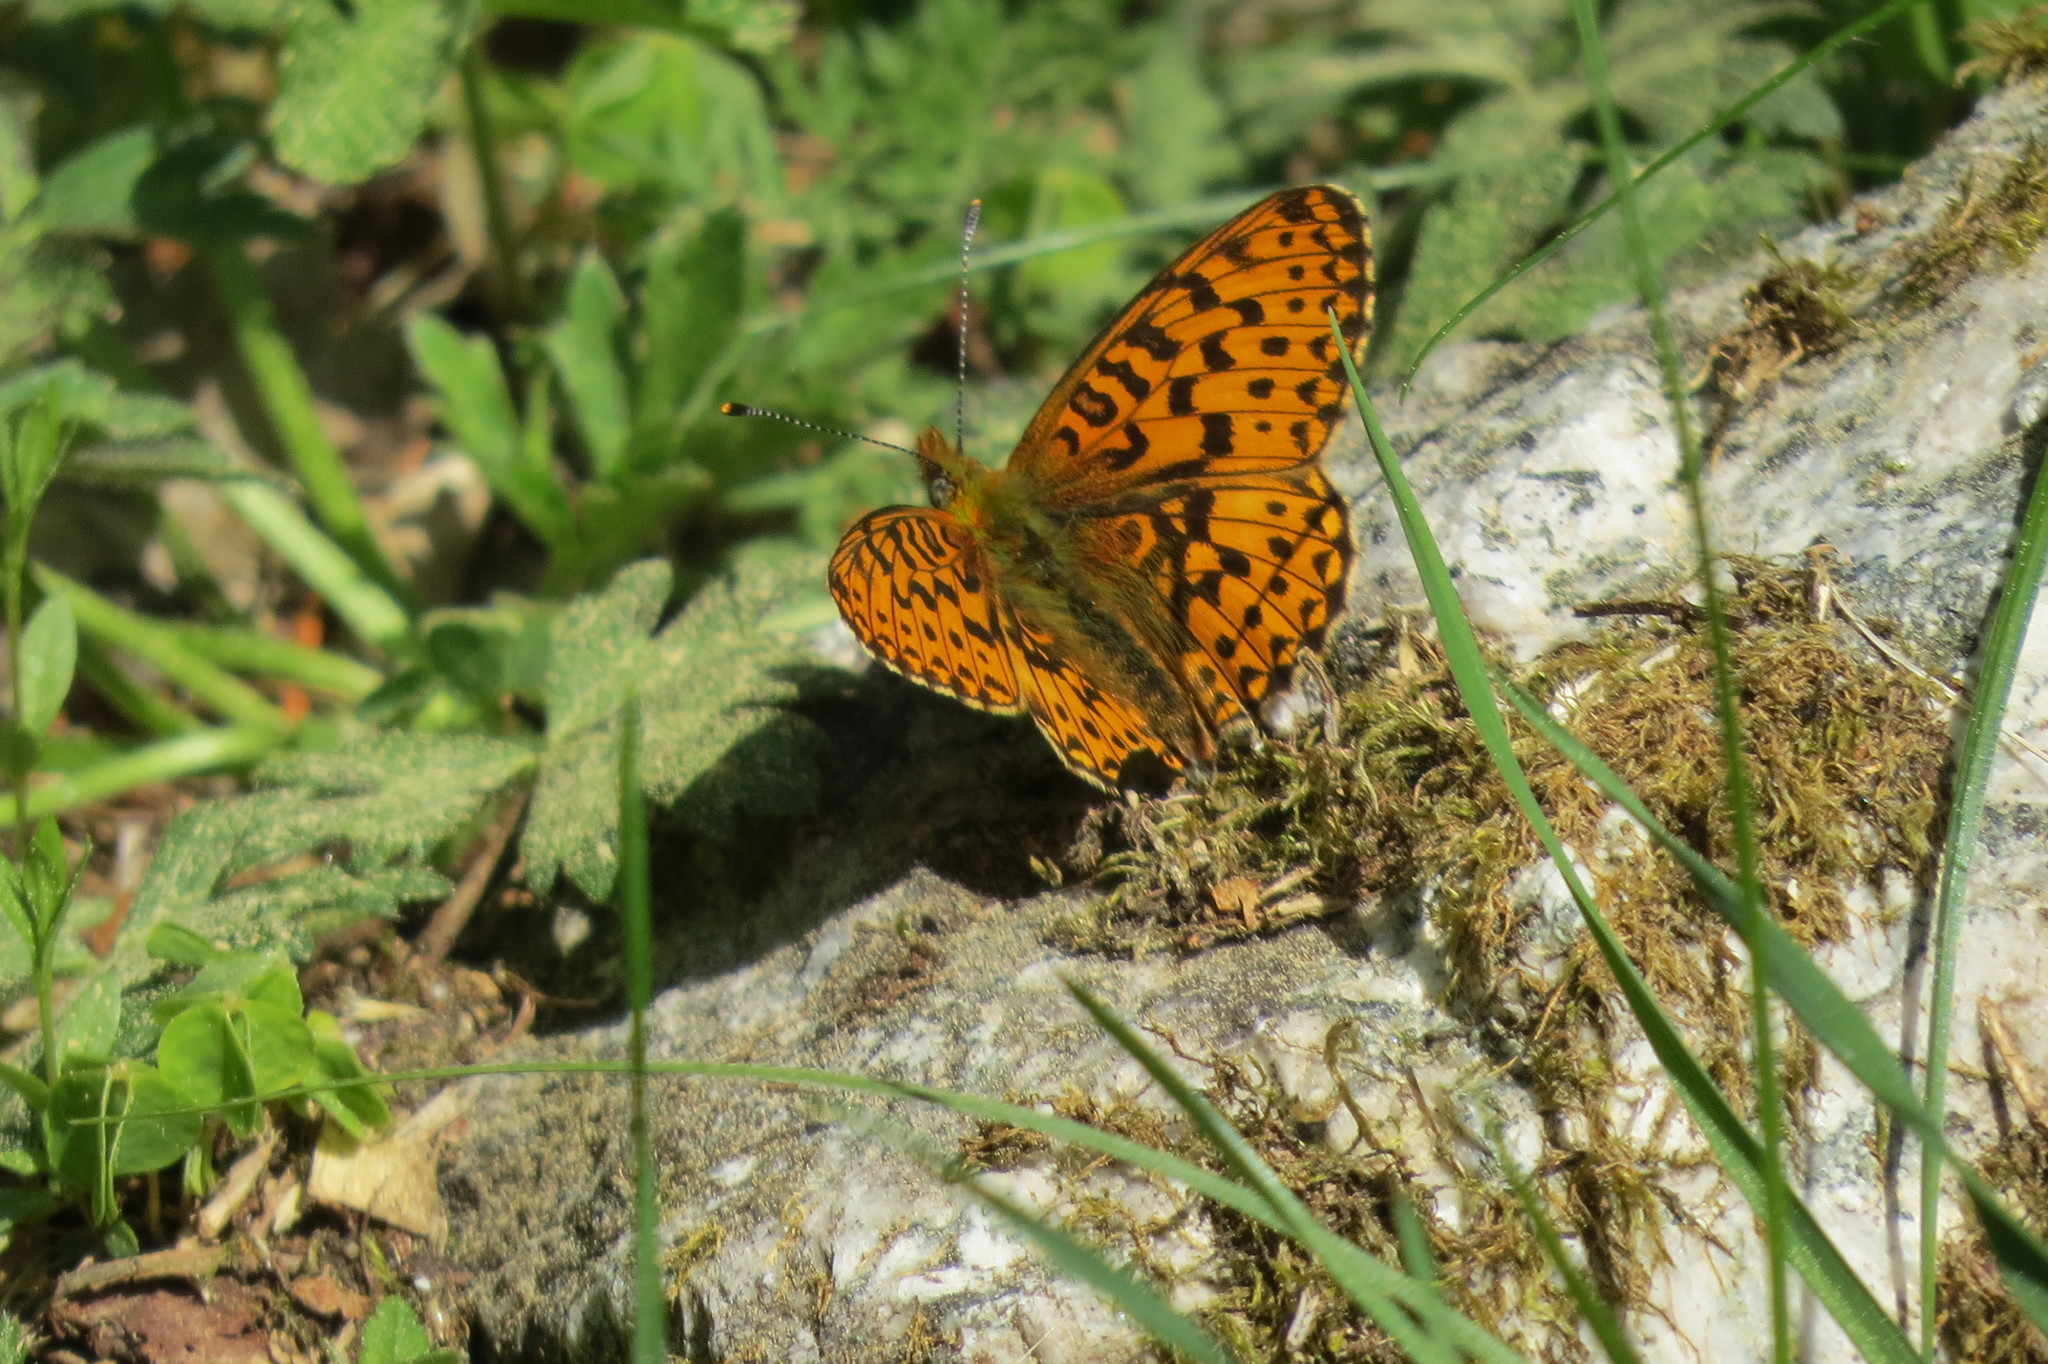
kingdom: Animalia
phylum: Arthropoda
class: Insecta
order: Lepidoptera
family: Nymphalidae
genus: Clossiana
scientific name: Clossiana euphrosyne
